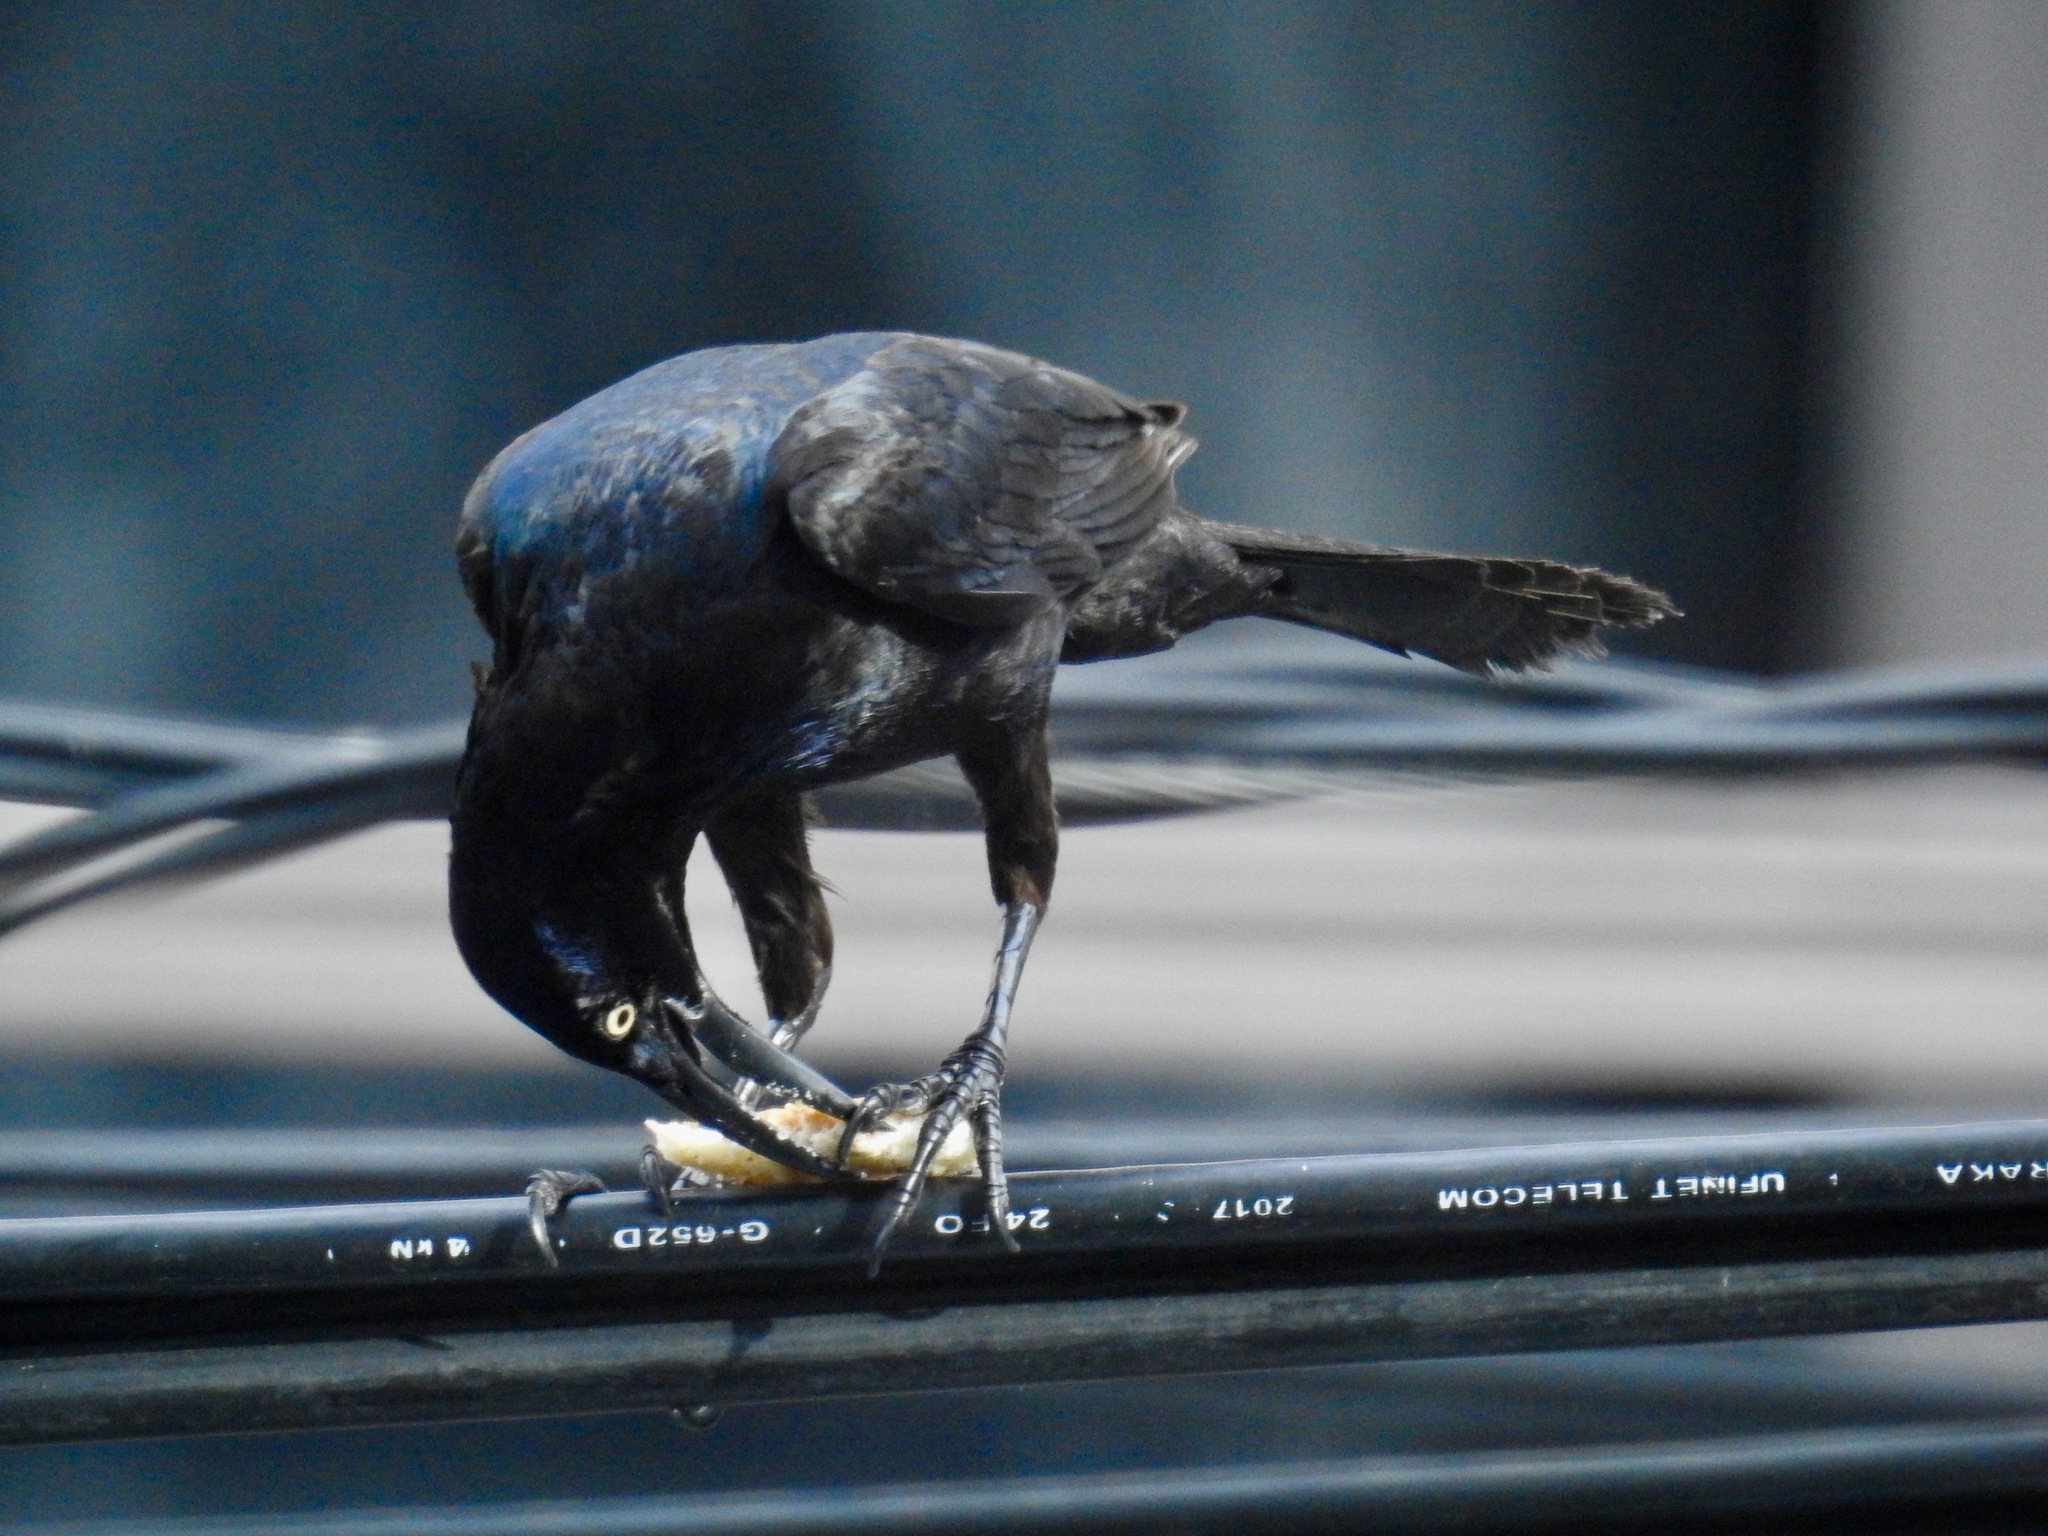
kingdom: Animalia
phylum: Chordata
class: Aves
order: Passeriformes
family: Icteridae
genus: Quiscalus
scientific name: Quiscalus mexicanus
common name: Great-tailed grackle
